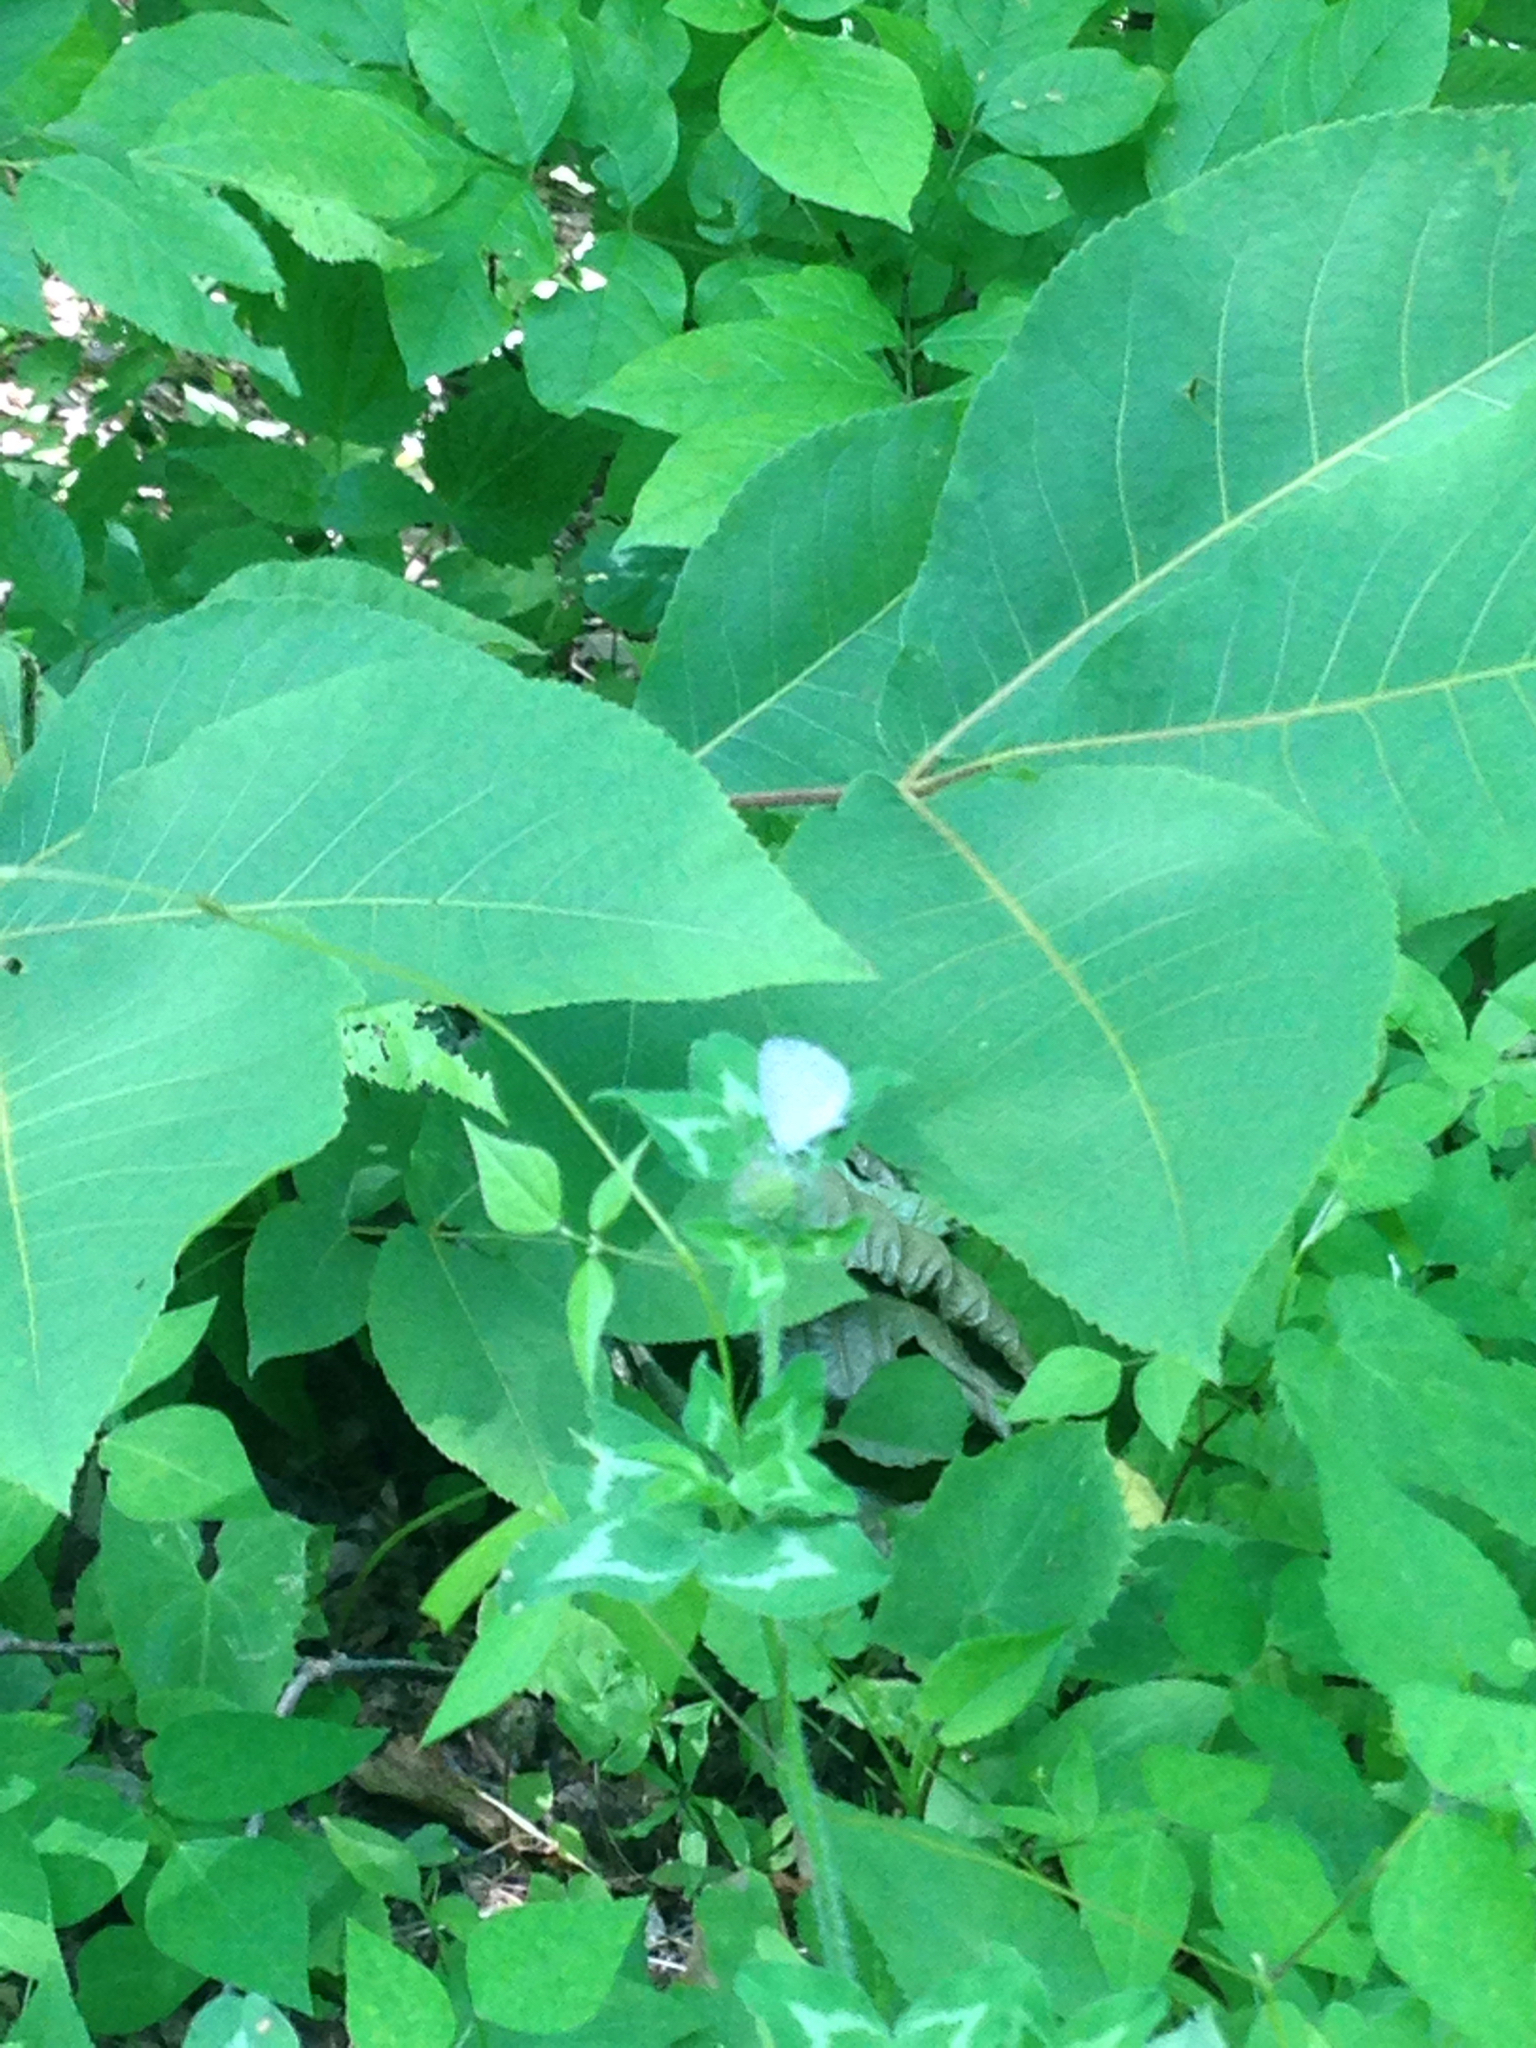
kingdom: Plantae
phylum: Tracheophyta
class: Magnoliopsida
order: Magnoliales
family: Magnoliaceae
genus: Magnolia
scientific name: Magnolia acuminata
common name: Cucumber magnolia
